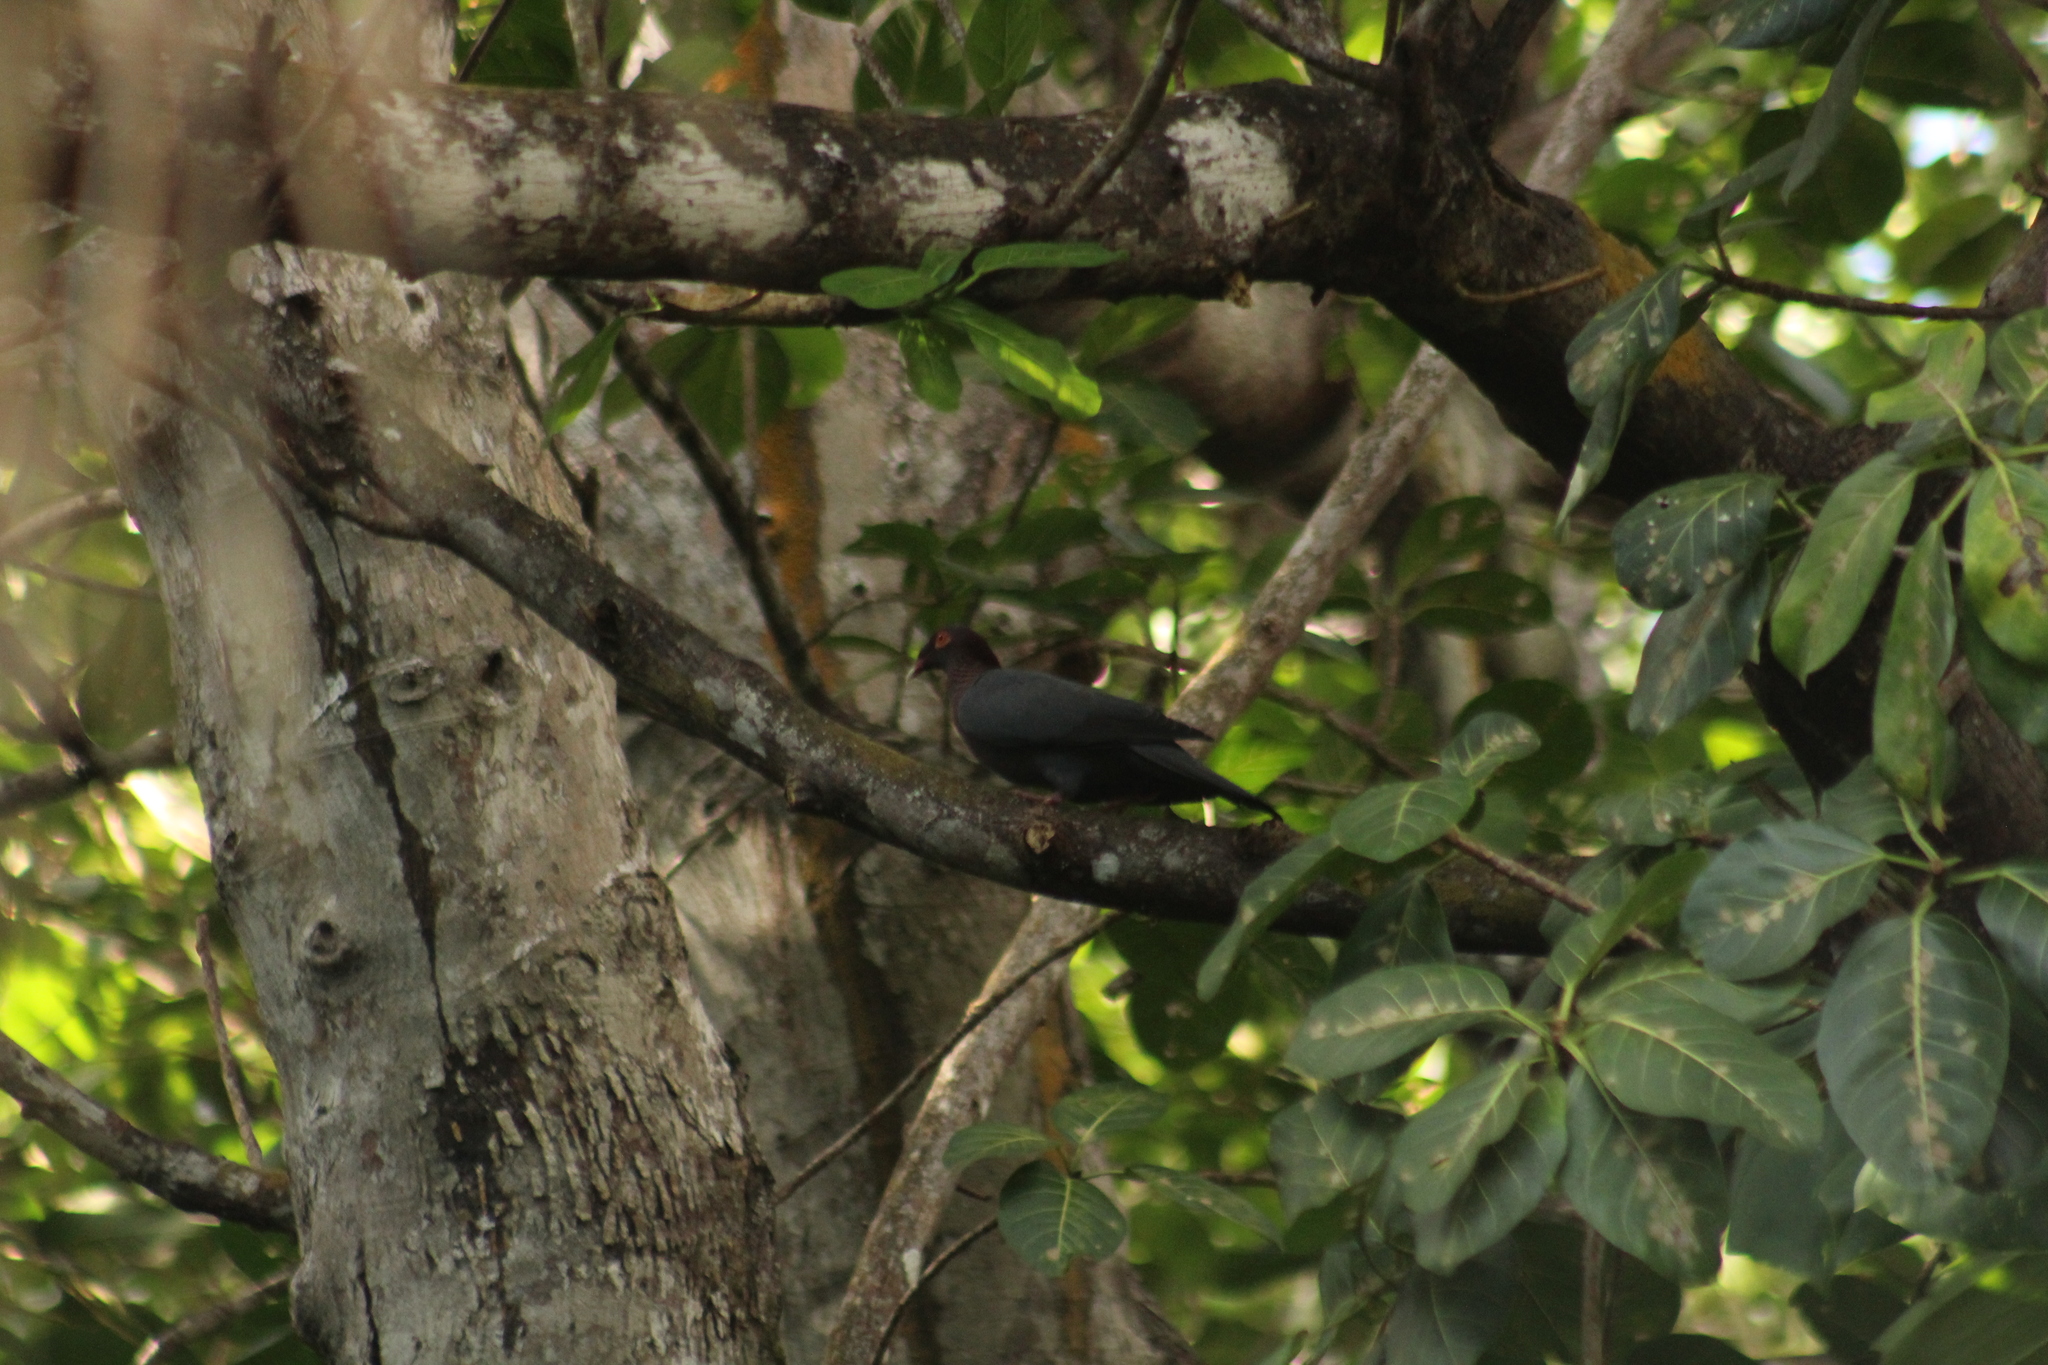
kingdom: Animalia
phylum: Chordata
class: Aves
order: Columbiformes
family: Columbidae
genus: Patagioenas
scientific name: Patagioenas squamosa
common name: Scaly-naped pigeon
